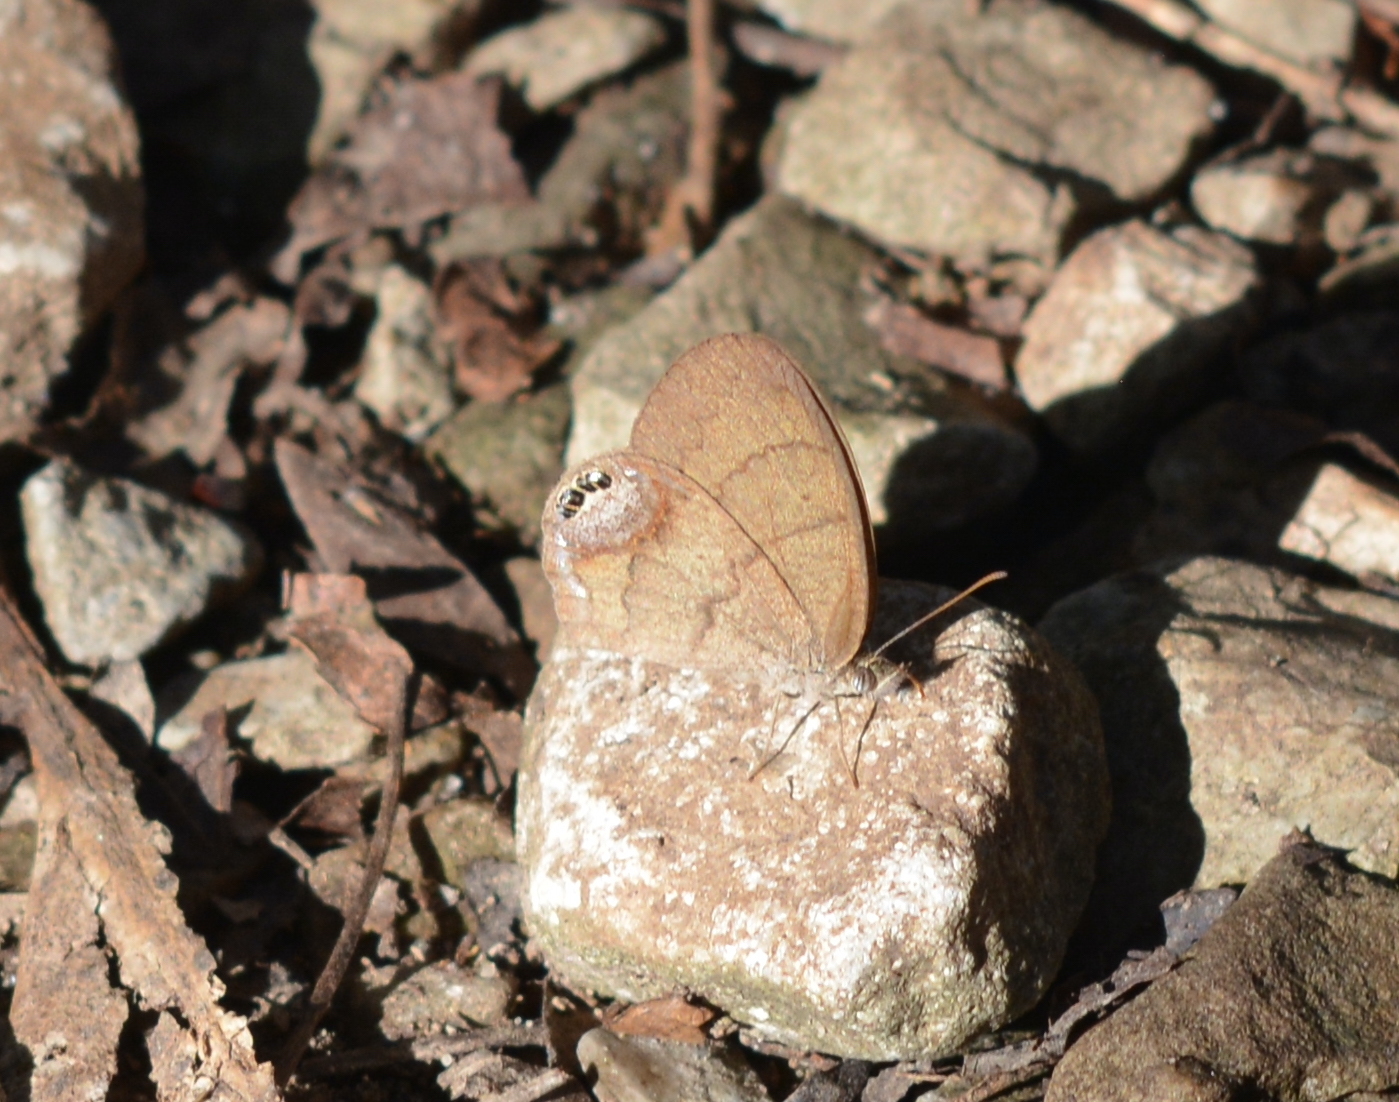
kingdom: Animalia
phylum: Arthropoda
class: Insecta
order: Lepidoptera
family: Nymphalidae
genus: Euptychia
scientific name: Euptychia cornelius
